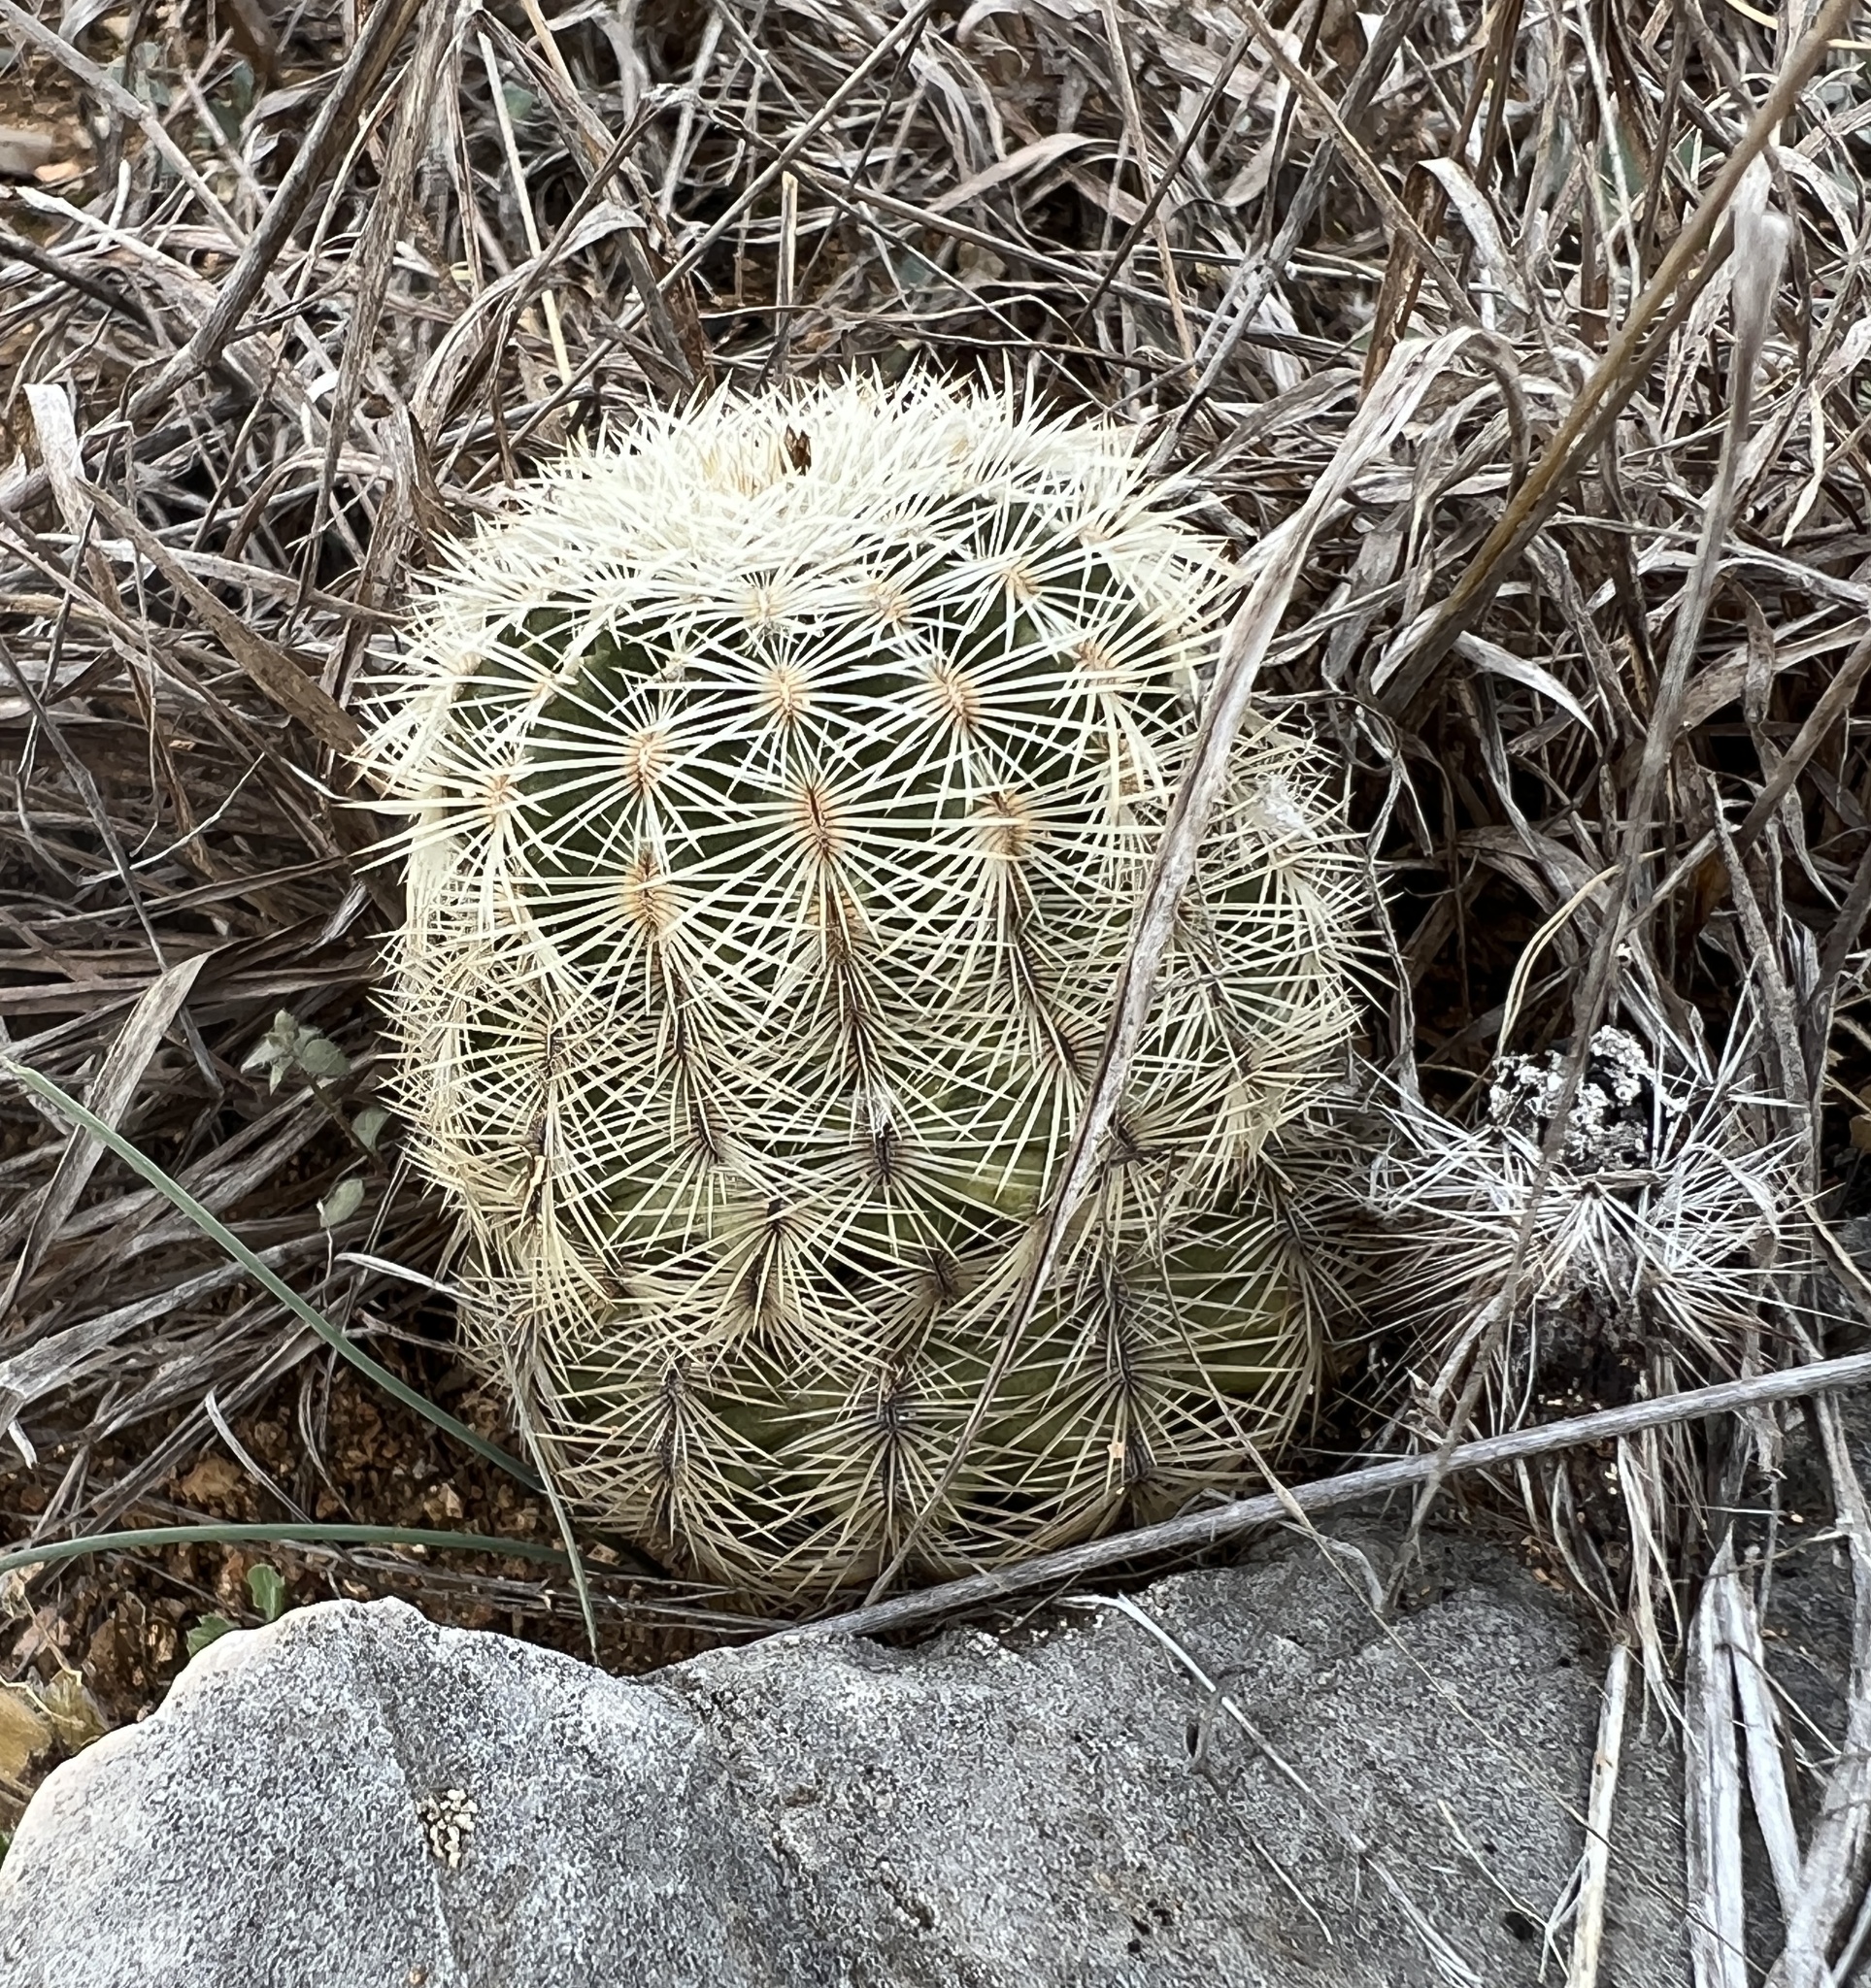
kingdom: Plantae
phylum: Tracheophyta
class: Magnoliopsida
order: Caryophyllales
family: Cactaceae
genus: Echinocereus
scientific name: Echinocereus reichenbachii
